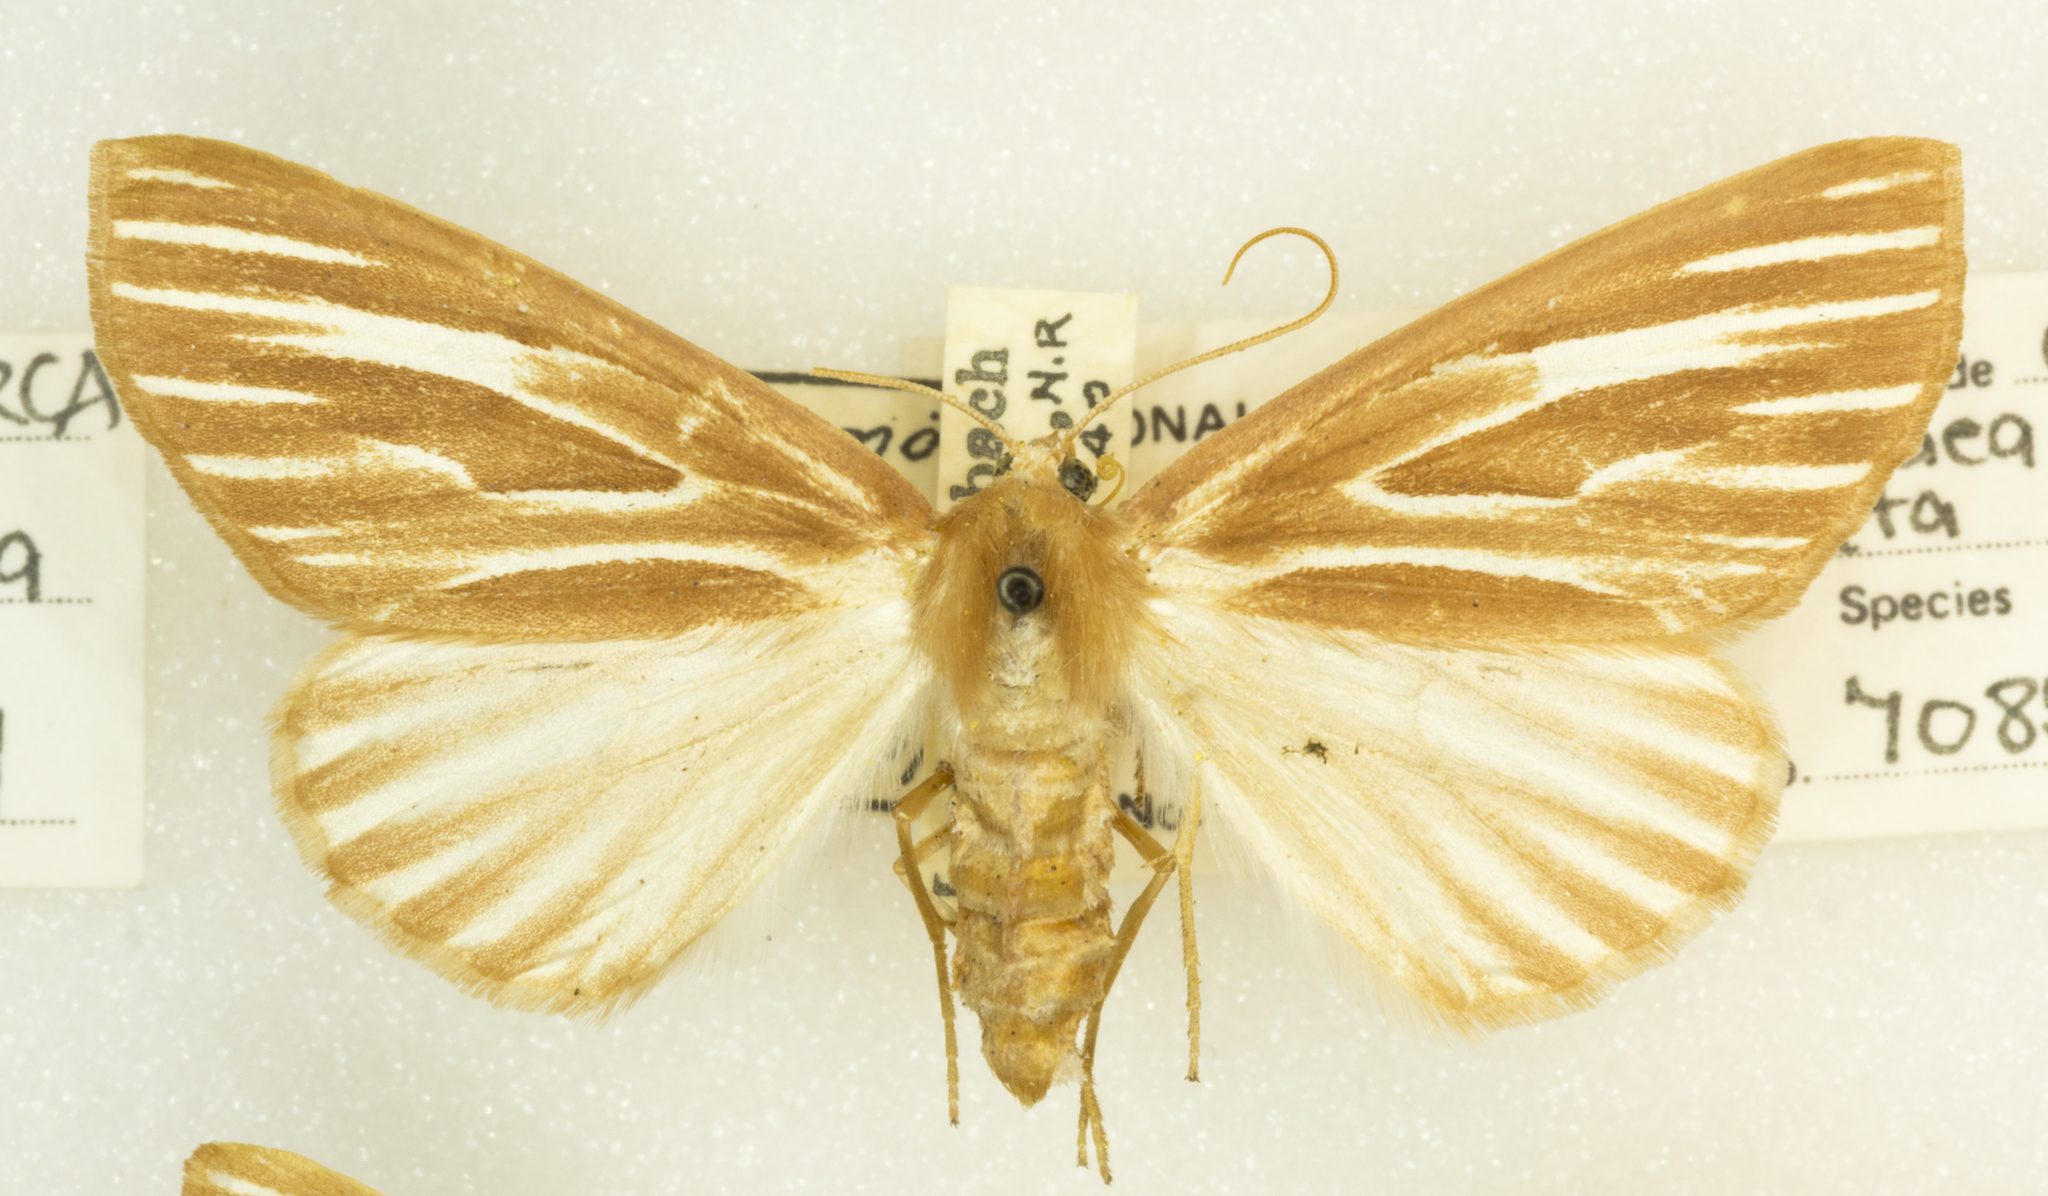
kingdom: Animalia
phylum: Arthropoda
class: Insecta
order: Lepidoptera
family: Geometridae
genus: Sabulodes
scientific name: Sabulodes niveostriata
